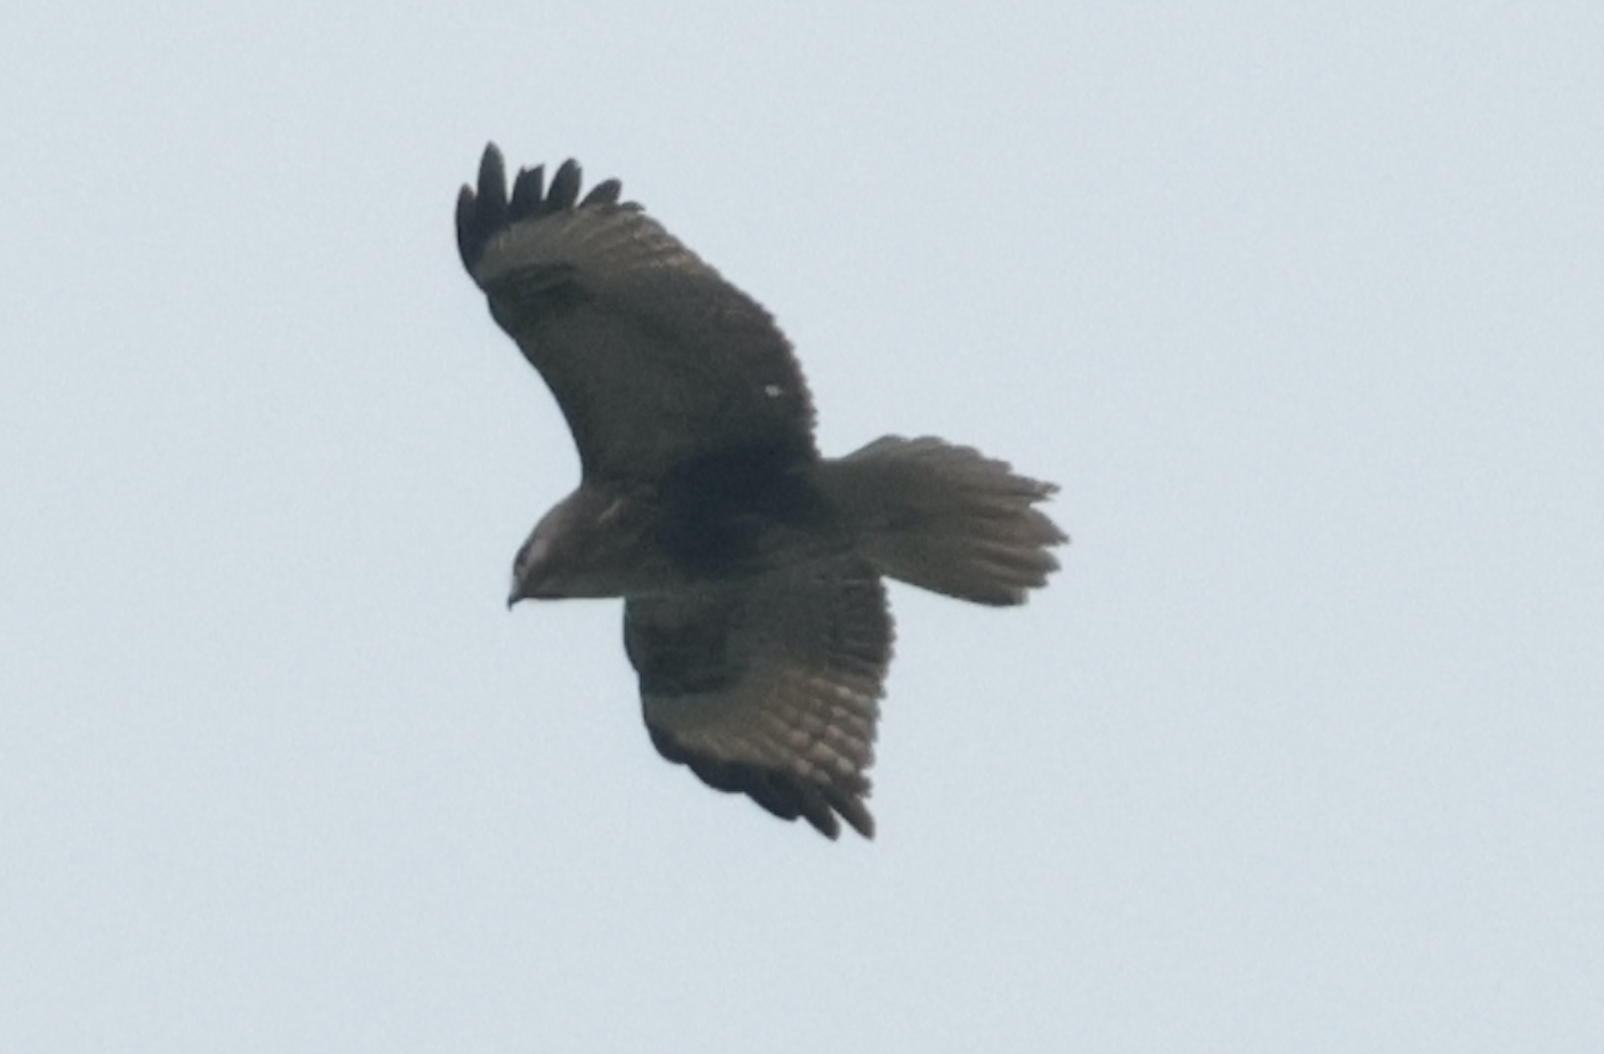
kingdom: Animalia
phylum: Chordata
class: Aves
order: Accipitriformes
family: Accipitridae
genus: Buteo
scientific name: Buteo japonicus
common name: Eastern buzzard
